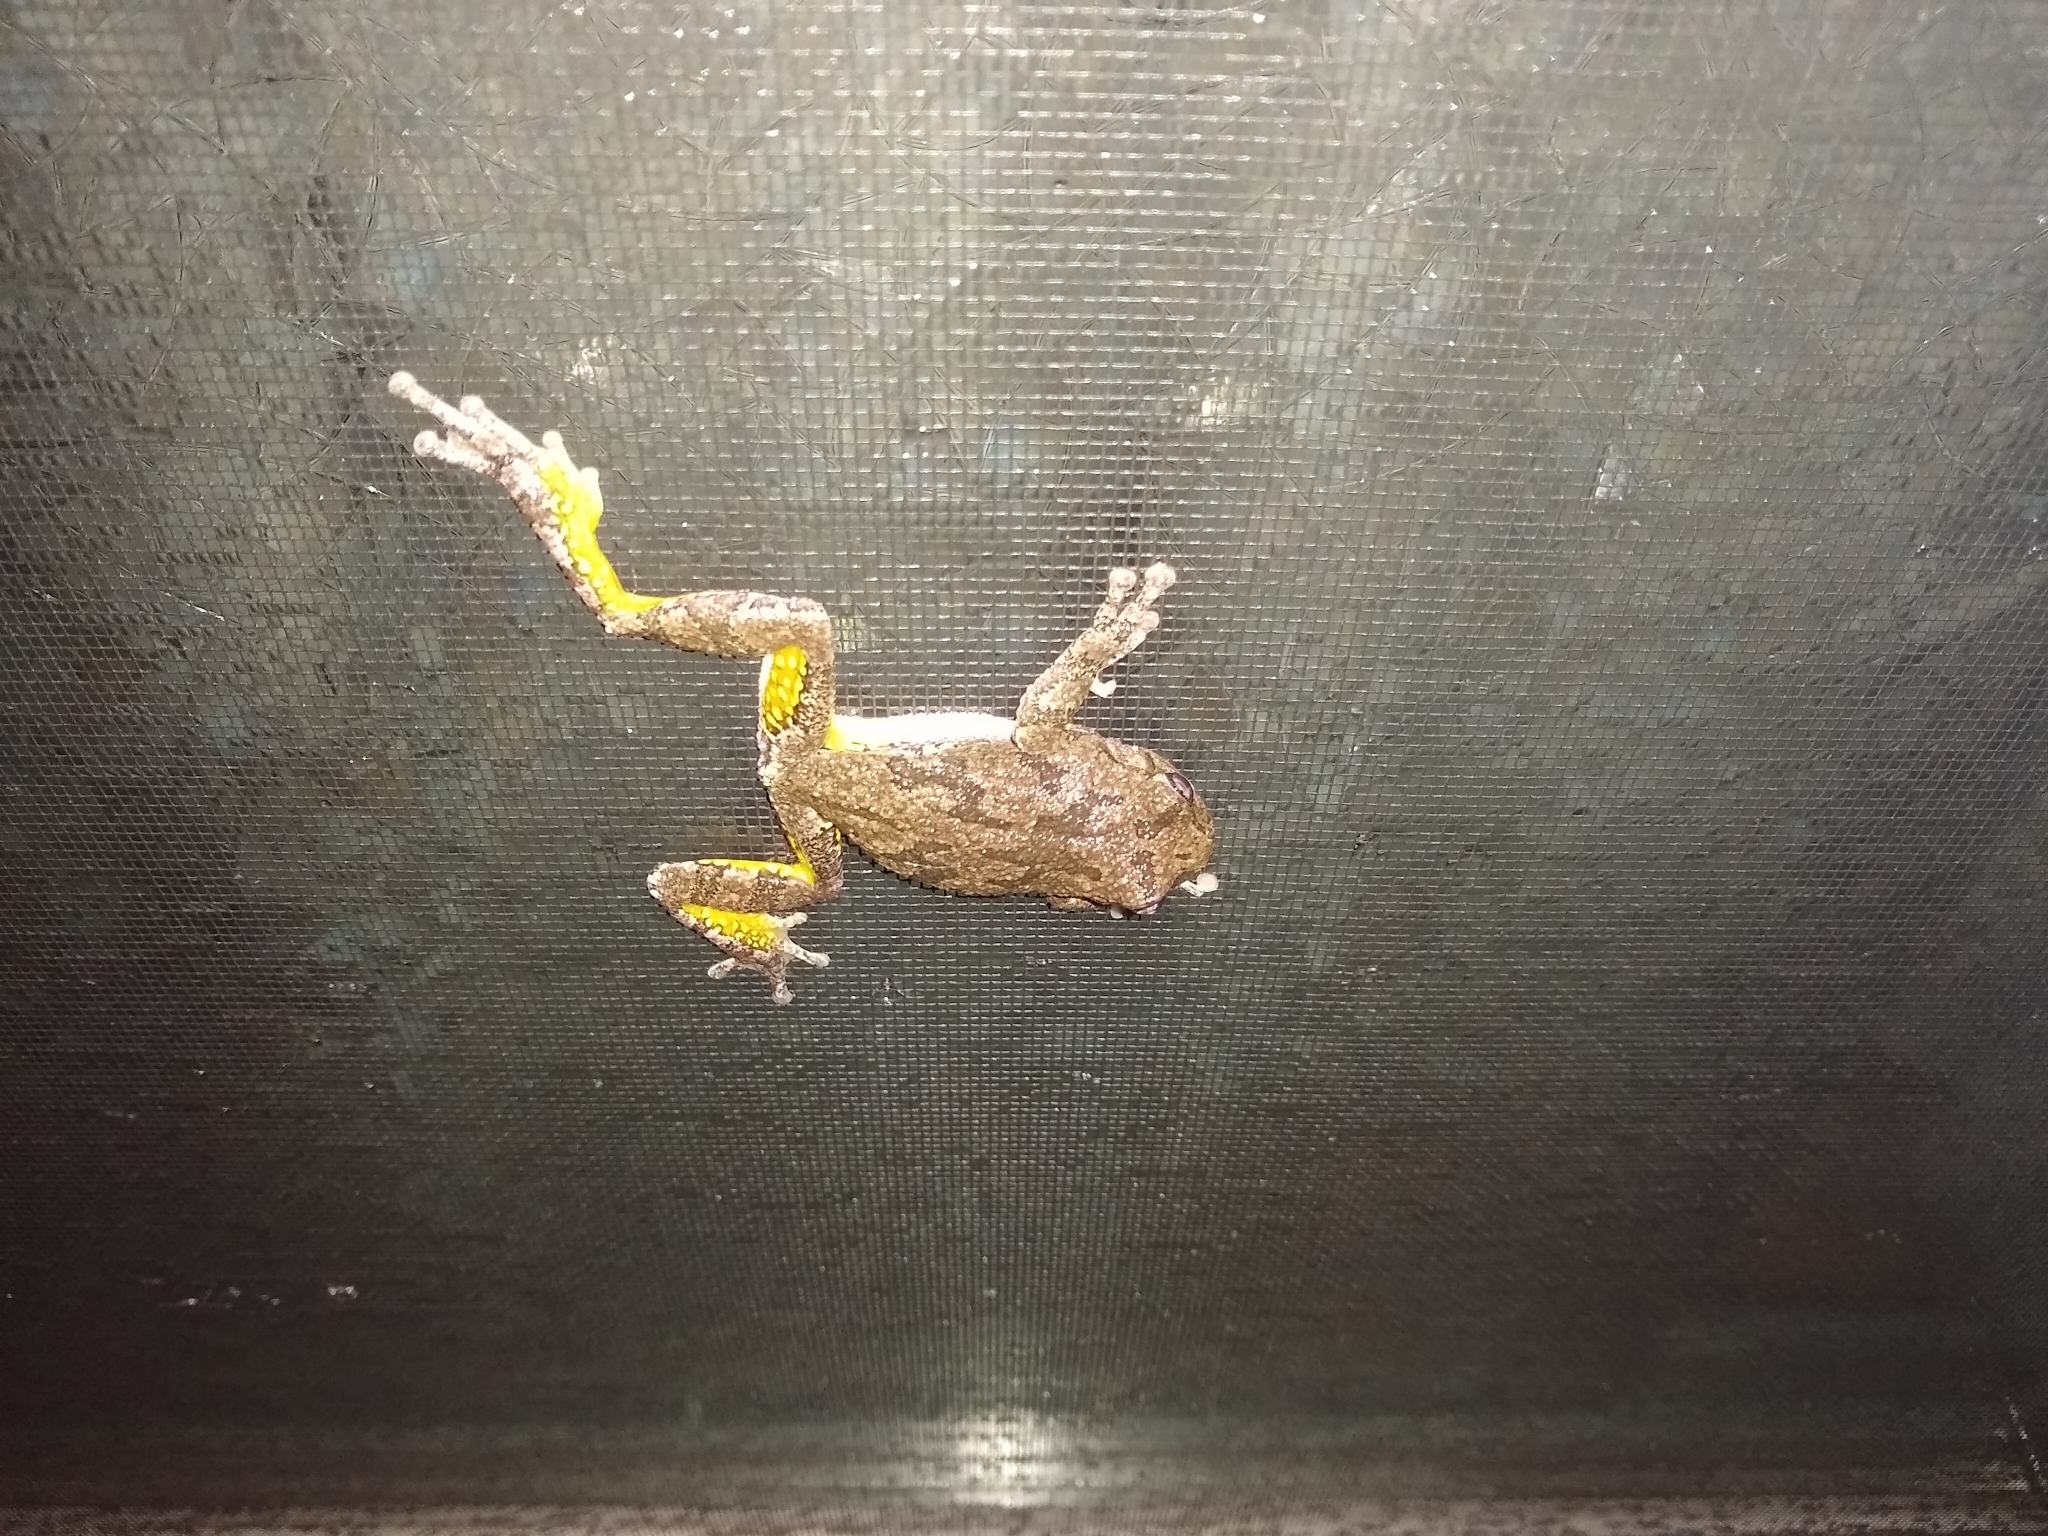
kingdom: Animalia
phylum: Chordata
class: Amphibia
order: Anura
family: Hylidae
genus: Hyla
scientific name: Hyla
